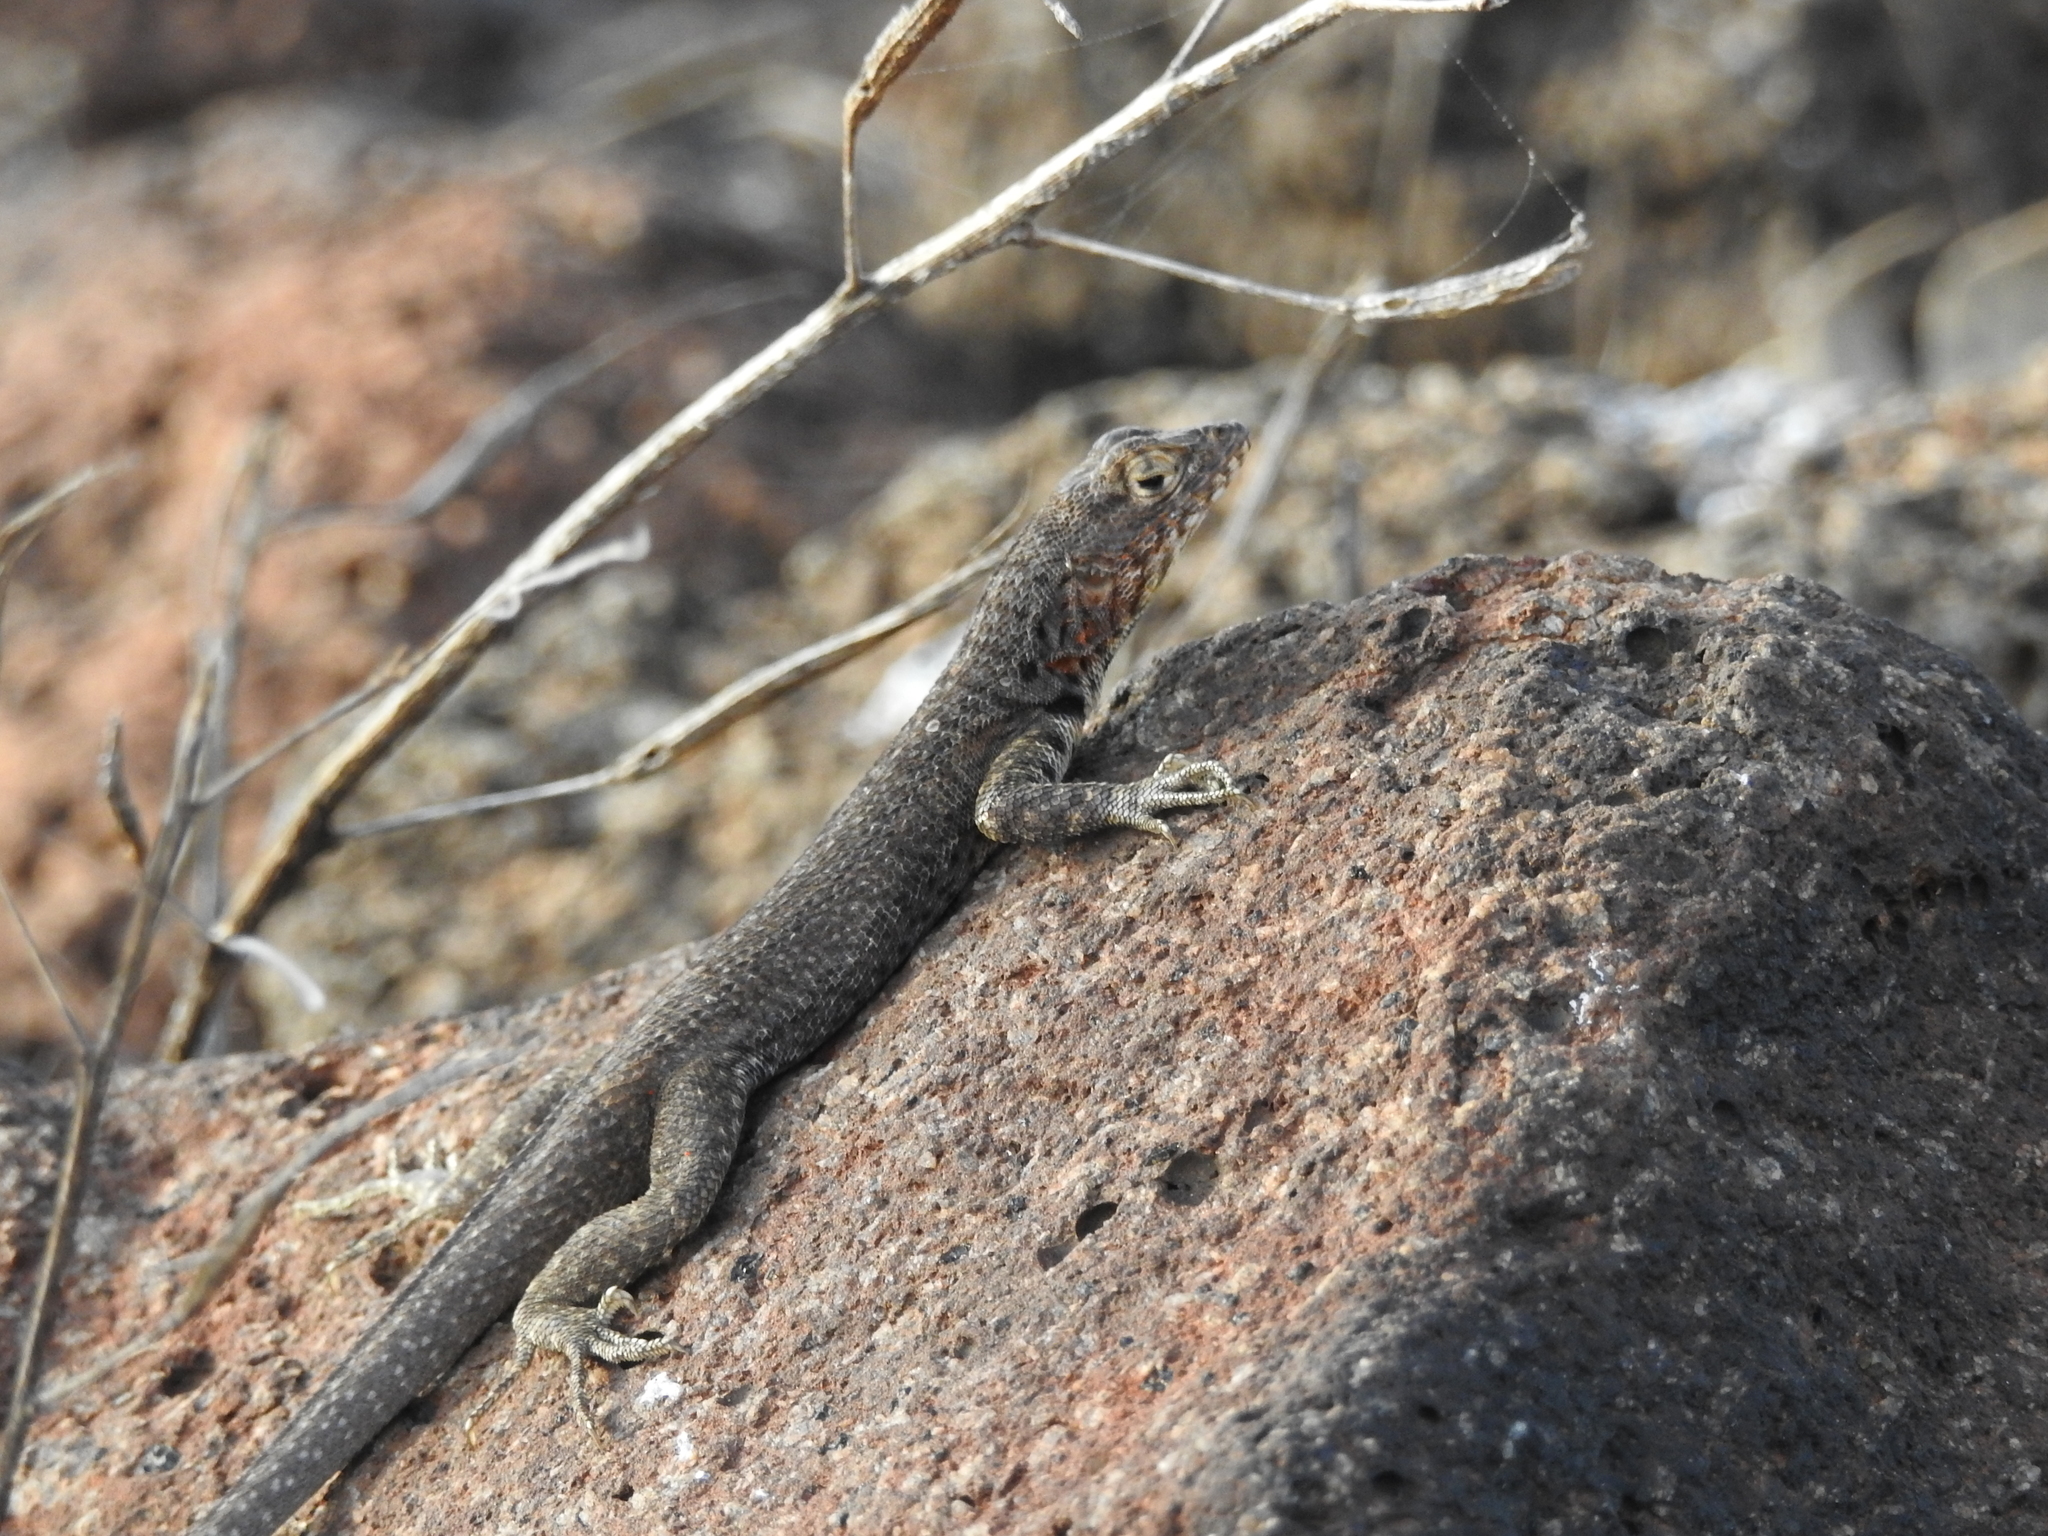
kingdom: Animalia
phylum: Chordata
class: Squamata
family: Tropiduridae
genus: Microlophus
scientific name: Microlophus indefatigabilis
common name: Galapagos lava lizard
